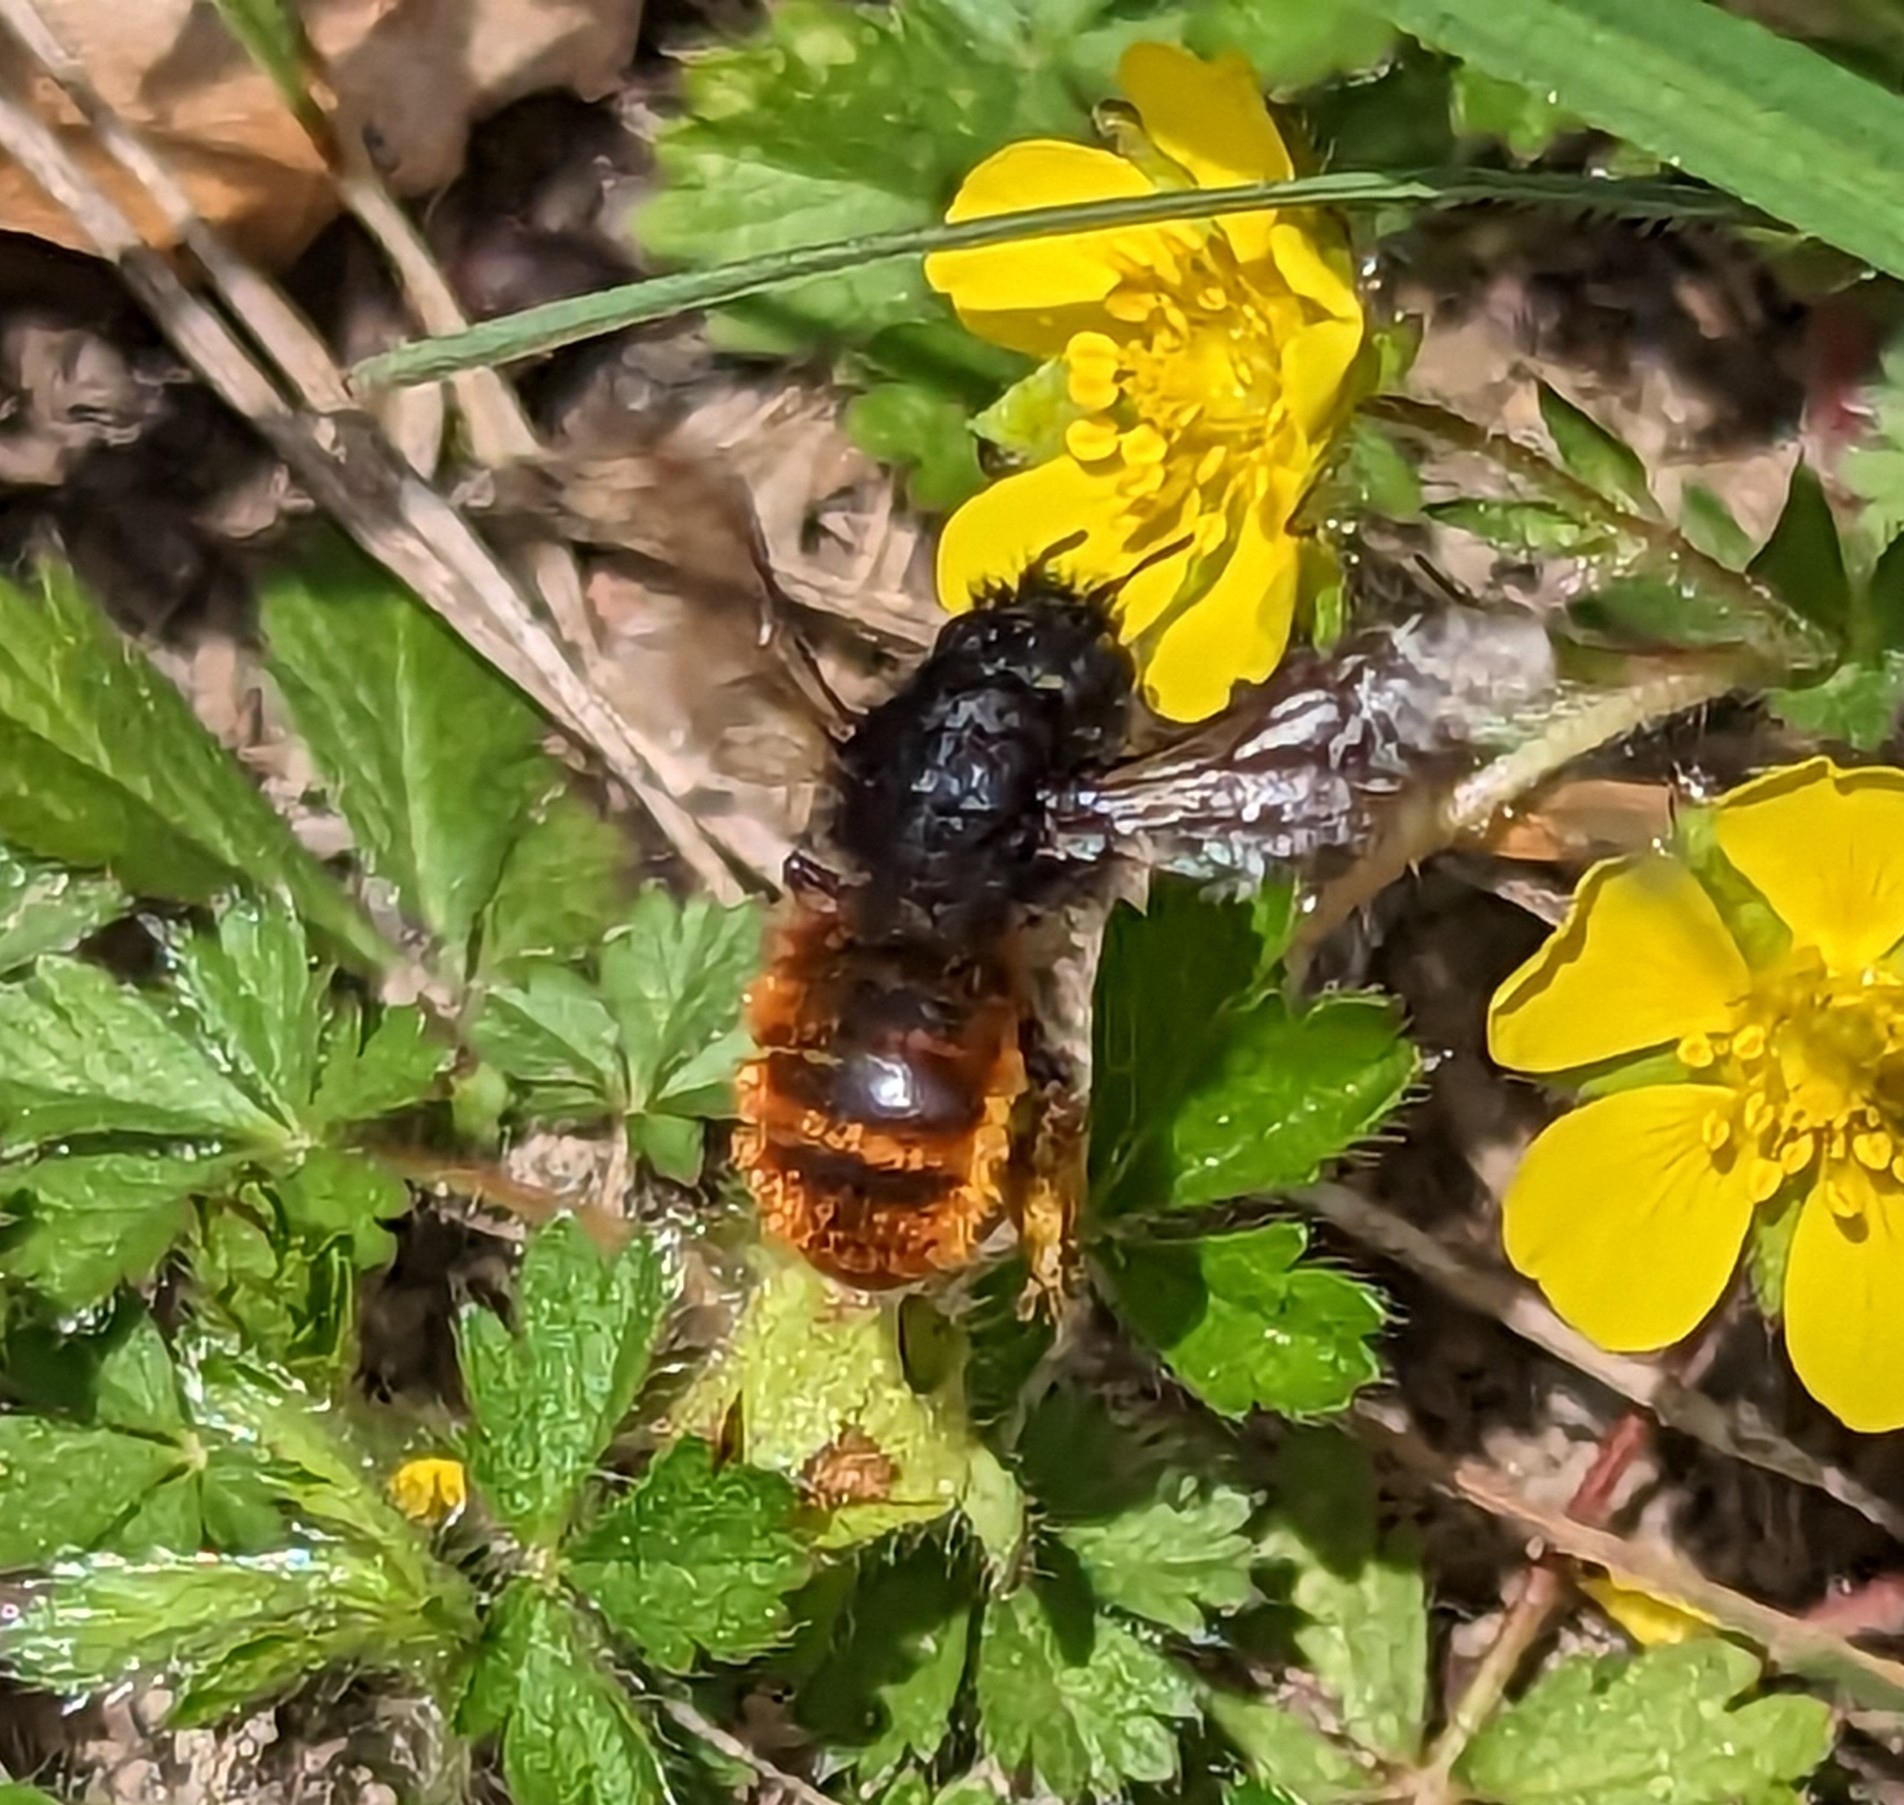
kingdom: Animalia
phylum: Arthropoda
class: Insecta
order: Hymenoptera
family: Megachilidae
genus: Osmia
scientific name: Osmia bicolor
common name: Red-tailed mason bee
